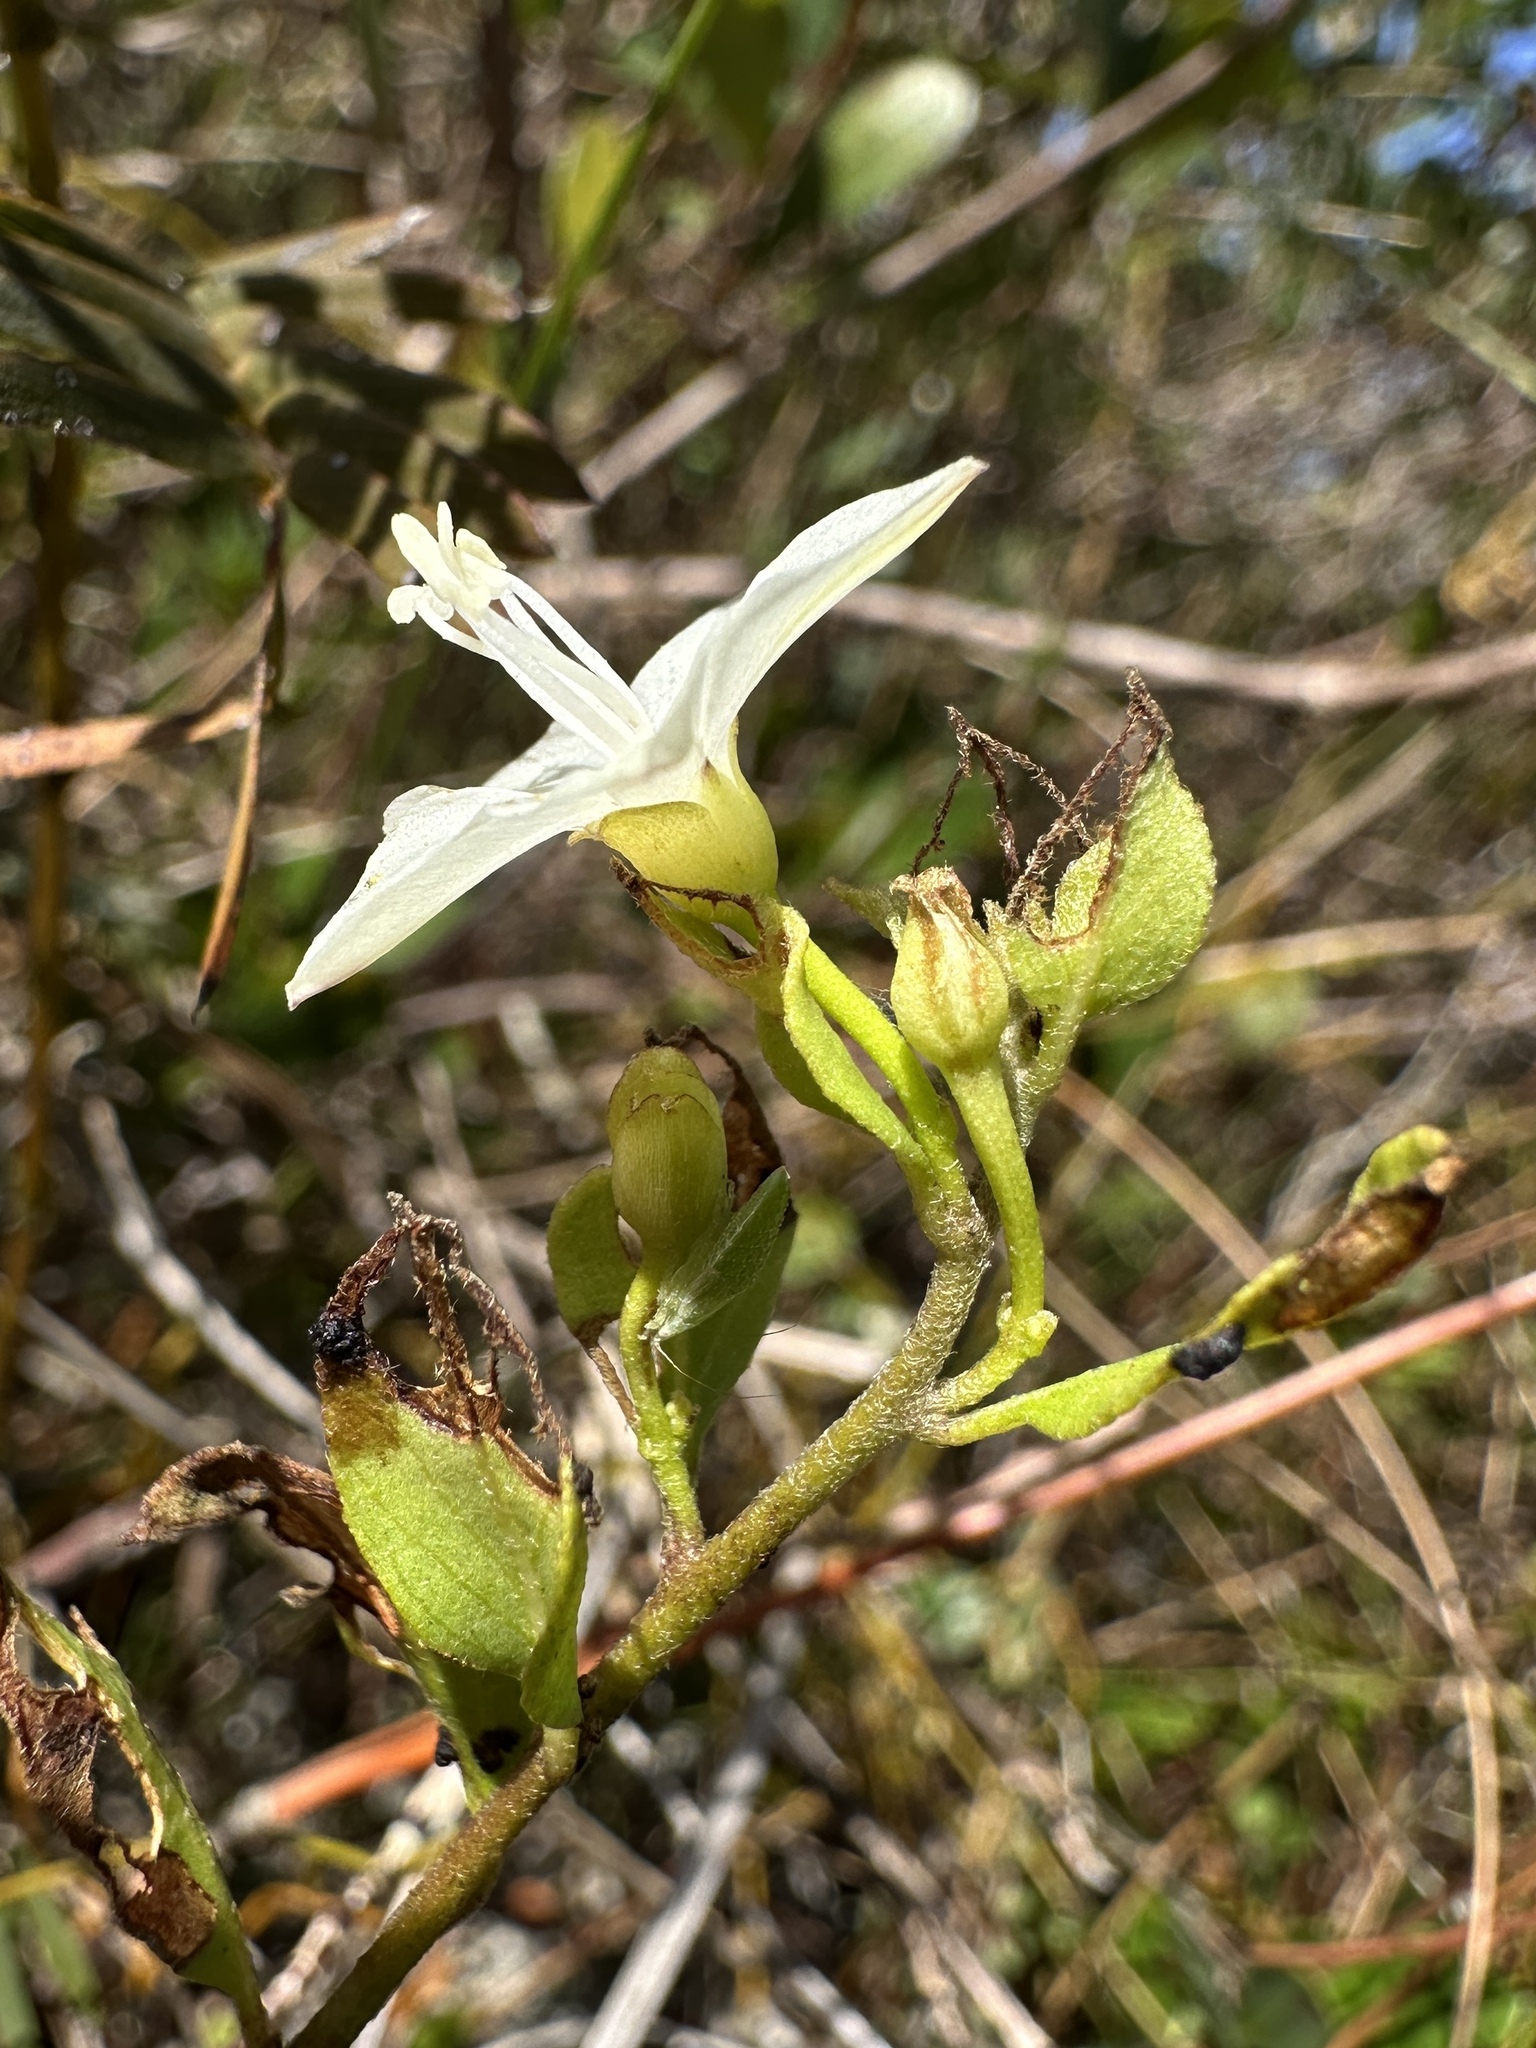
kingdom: Plantae
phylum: Tracheophyta
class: Magnoliopsida
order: Solanales
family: Convolvulaceae
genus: Jacquemontia
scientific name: Jacquemontia curtissii
